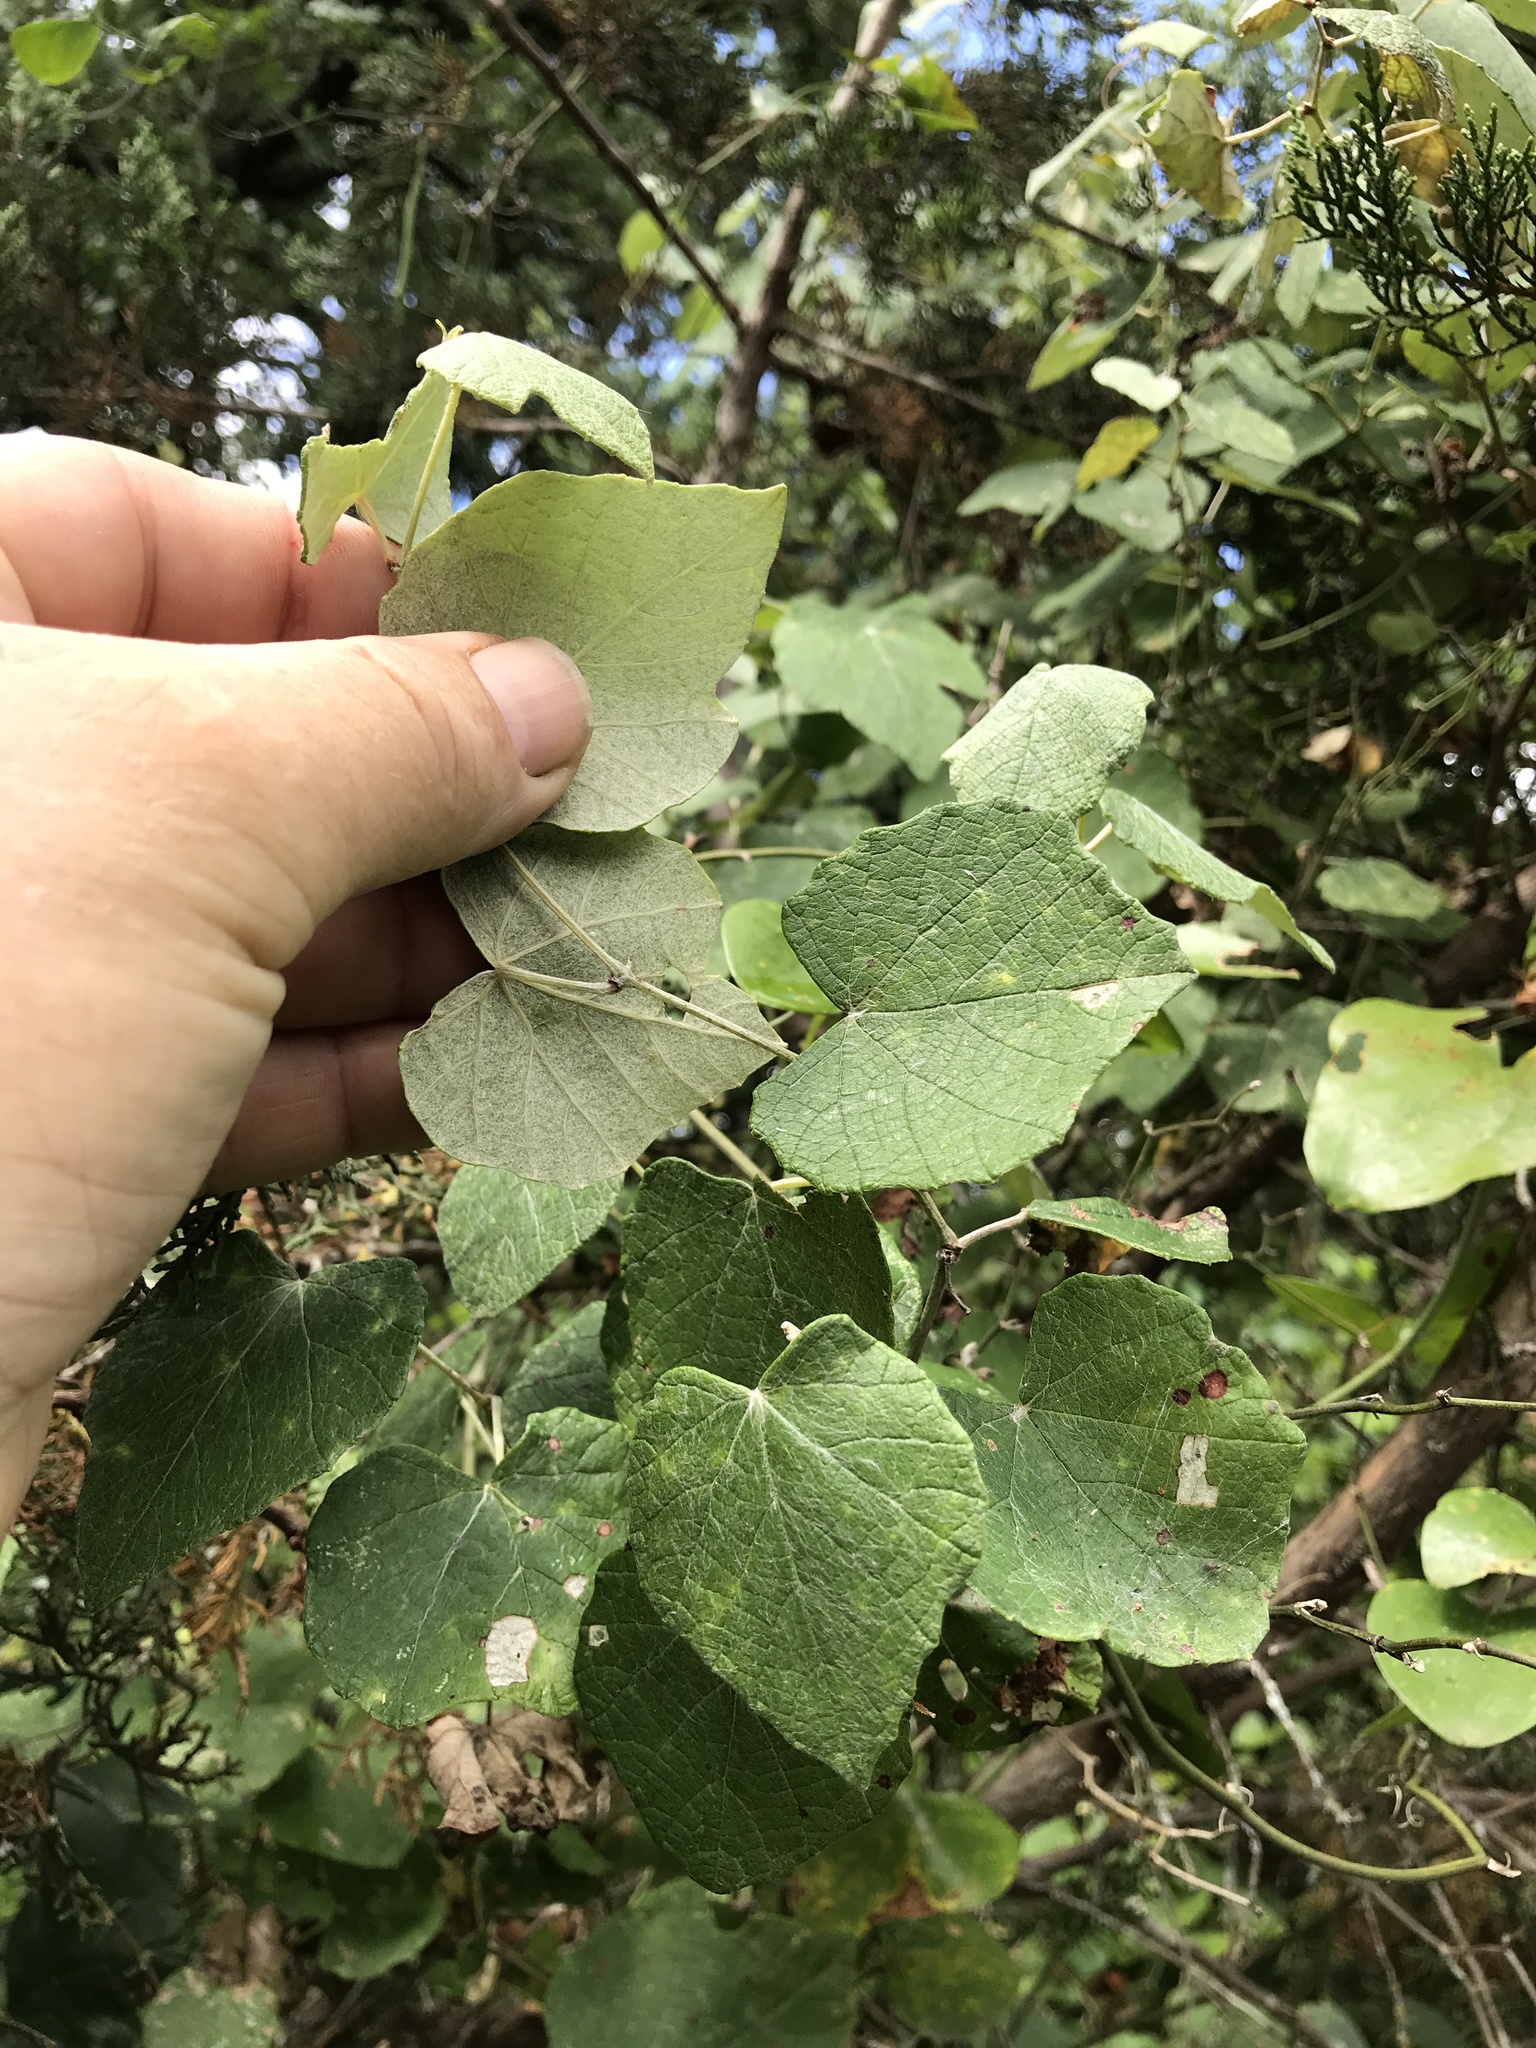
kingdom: Plantae
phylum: Tracheophyta
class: Magnoliopsida
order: Vitales
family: Vitaceae
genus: Vitis
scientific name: Vitis mustangensis
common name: Mustang grape
